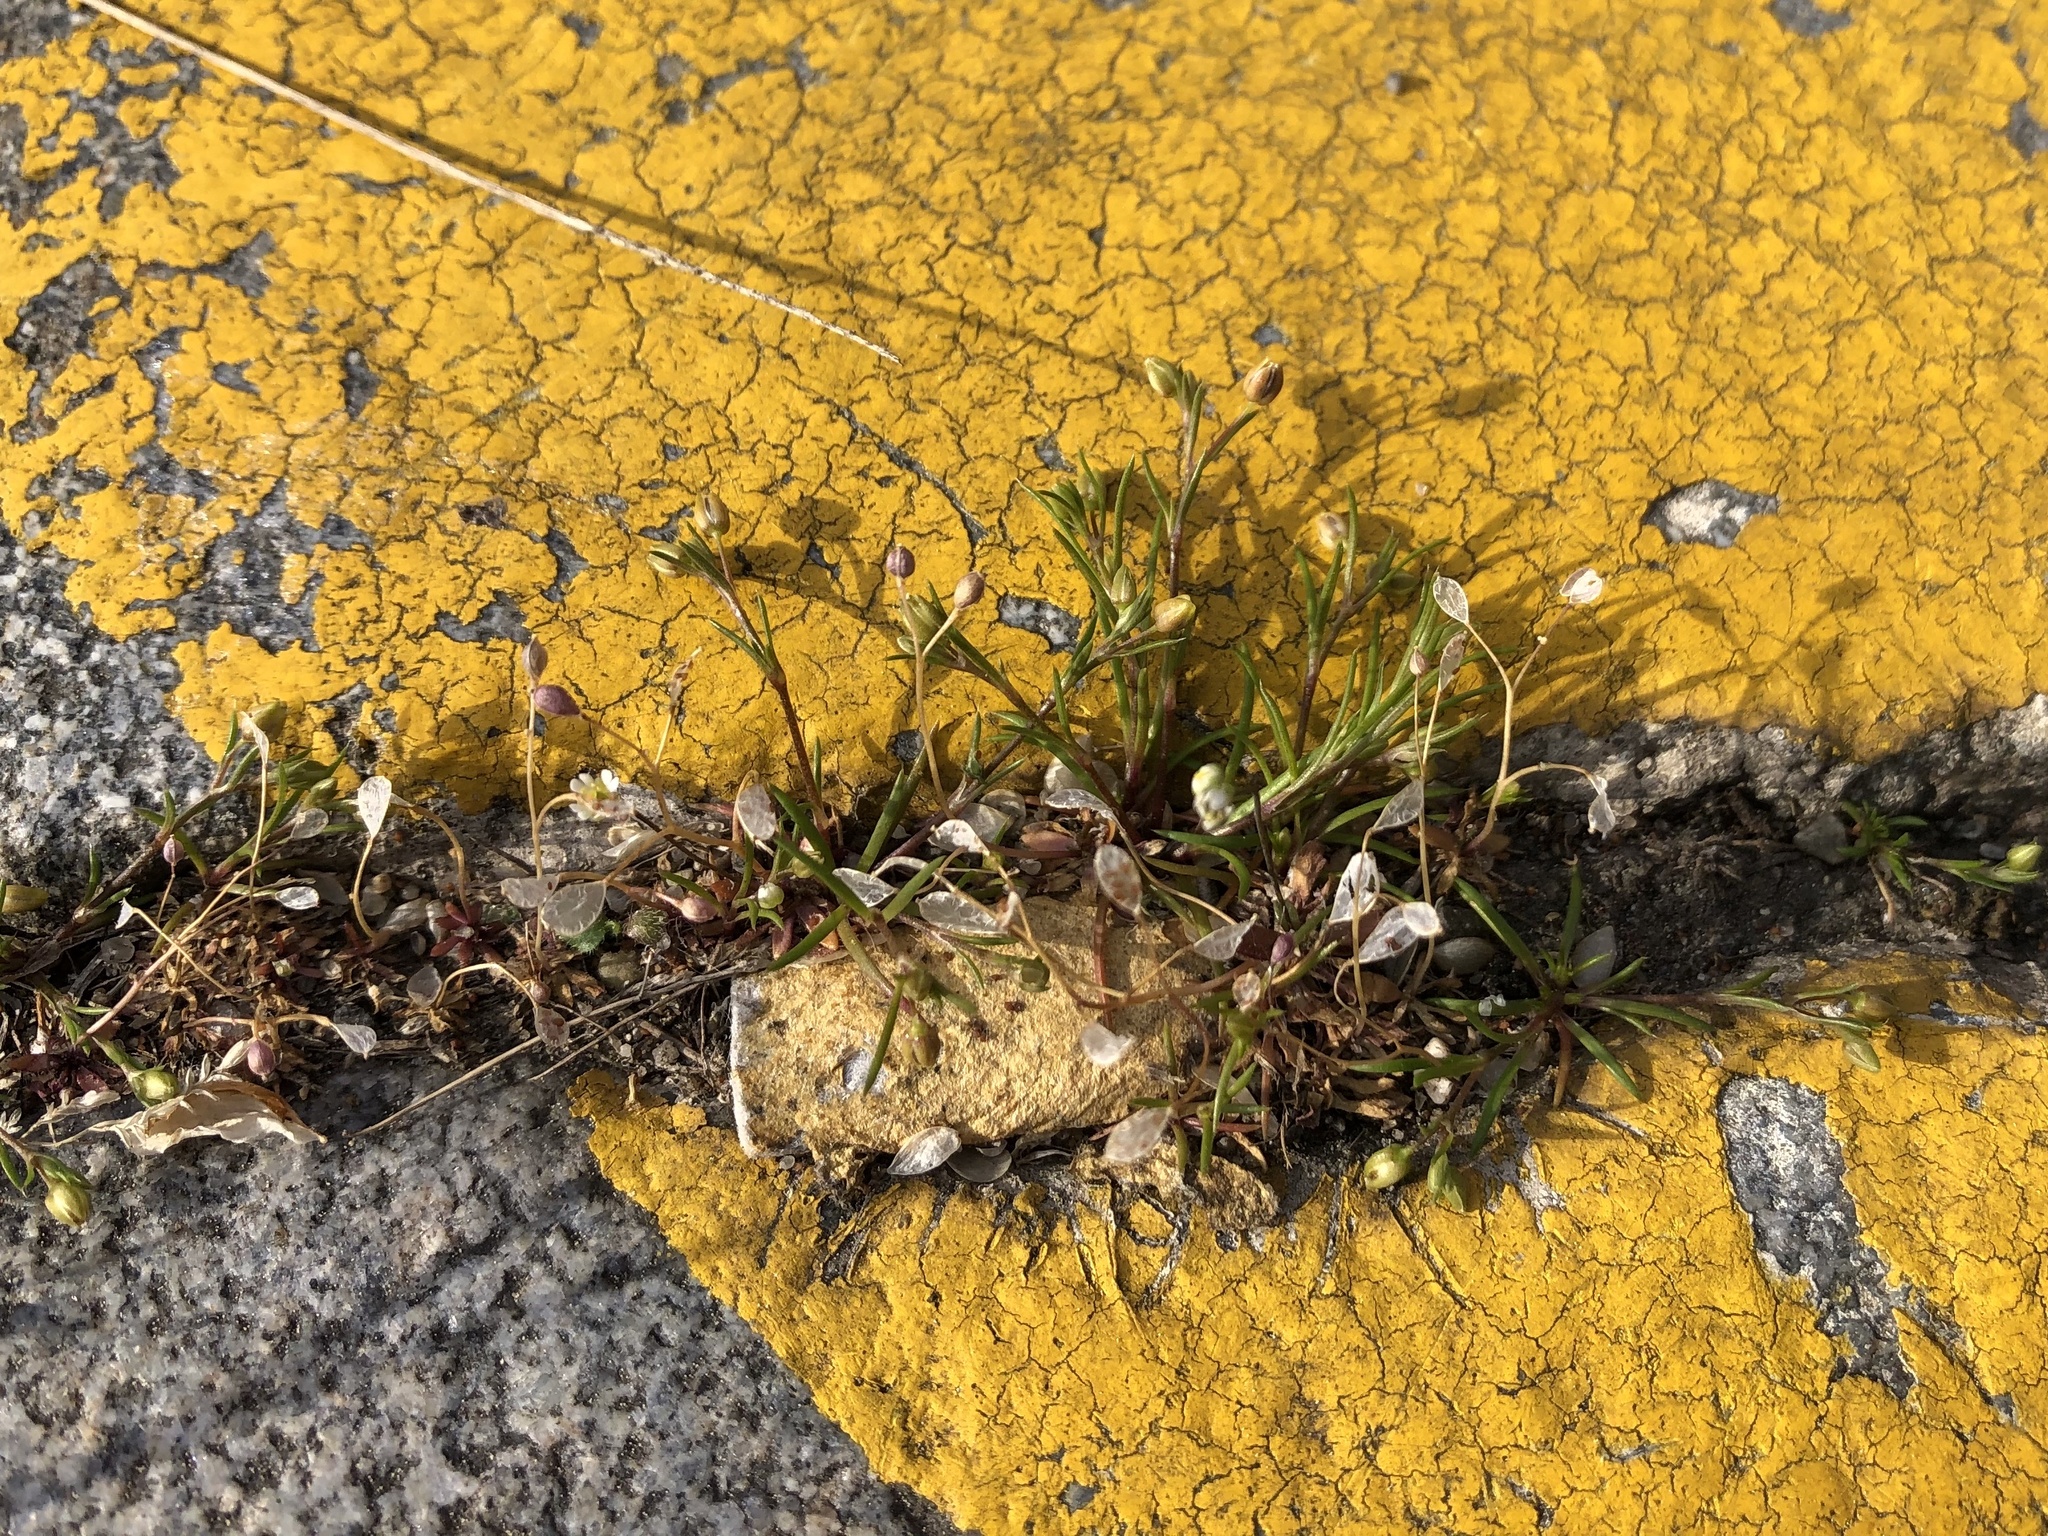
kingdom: Plantae
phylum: Tracheophyta
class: Magnoliopsida
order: Brassicales
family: Brassicaceae
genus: Draba
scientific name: Draba verna
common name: Spring draba
